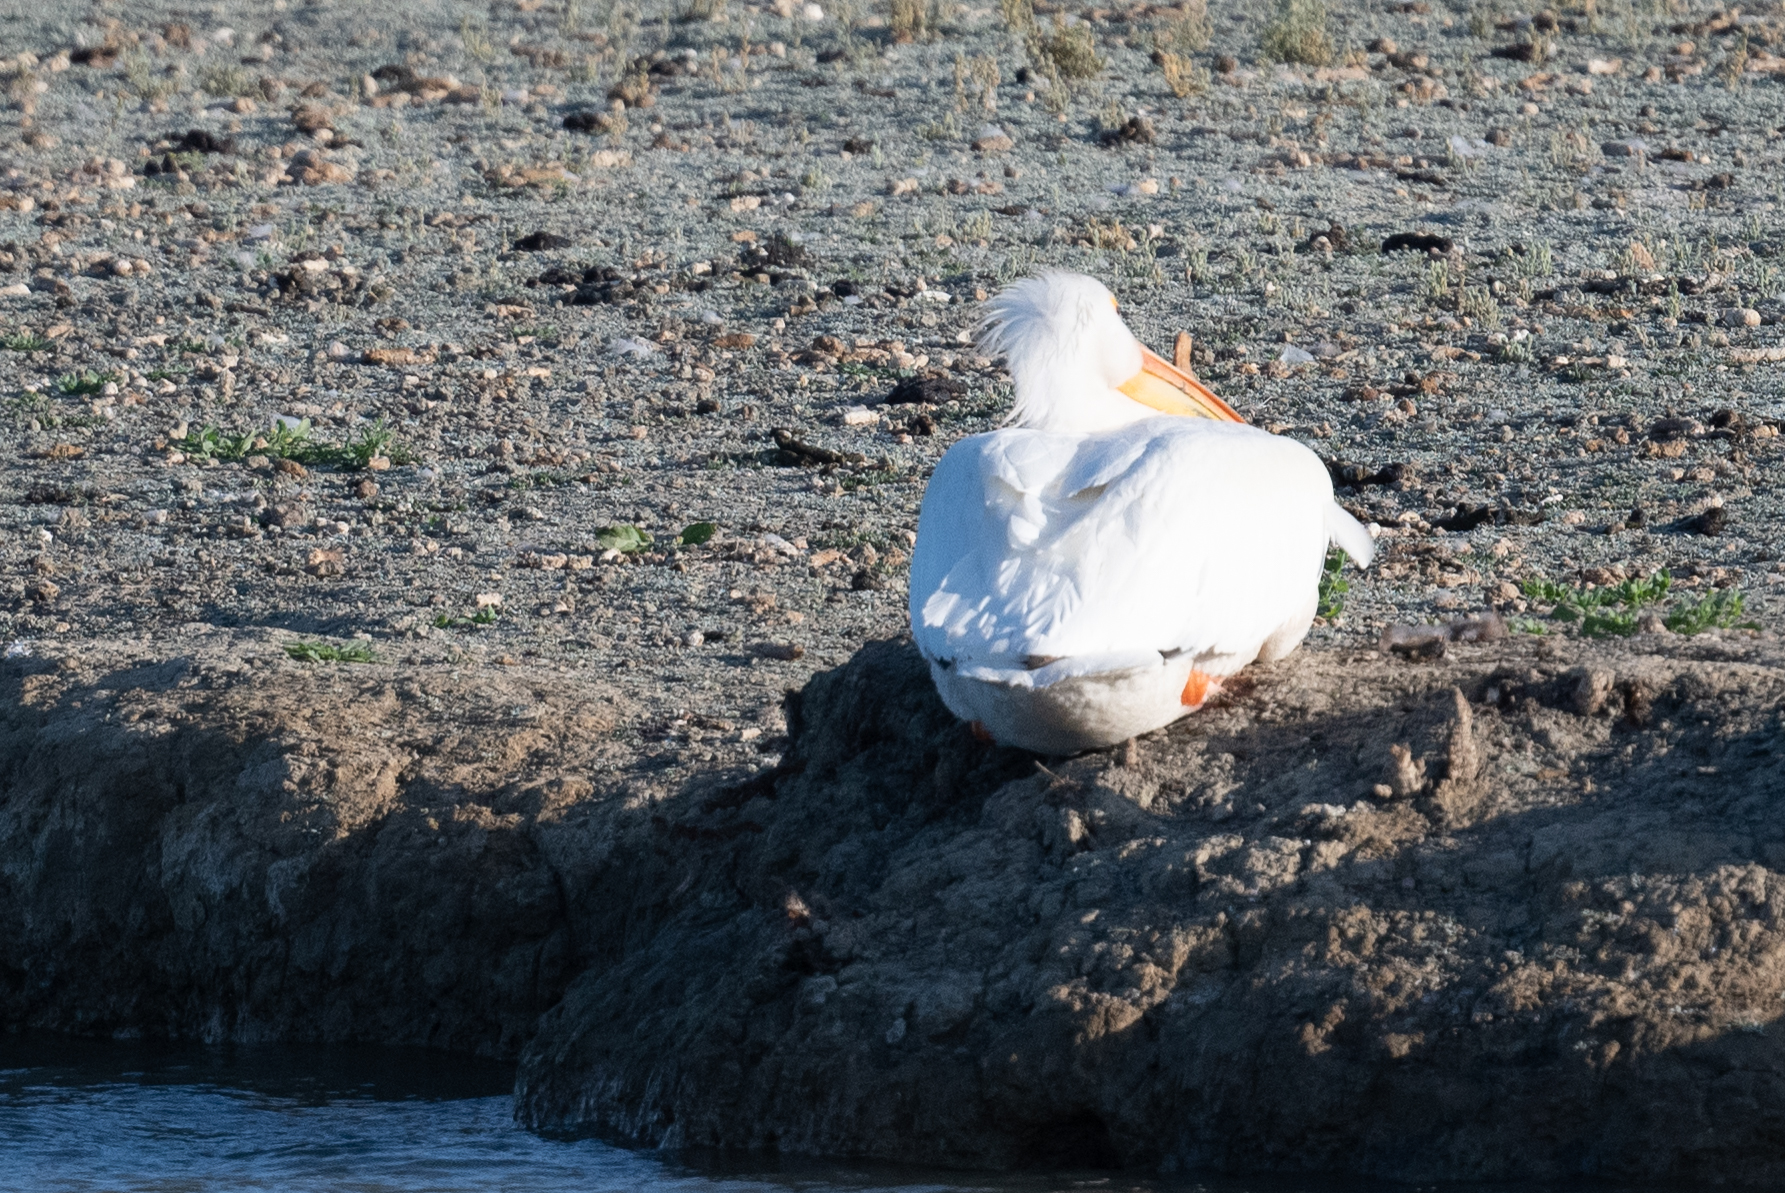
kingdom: Animalia
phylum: Chordata
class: Aves
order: Pelecaniformes
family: Pelecanidae
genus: Pelecanus
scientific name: Pelecanus erythrorhynchos
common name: American white pelican
